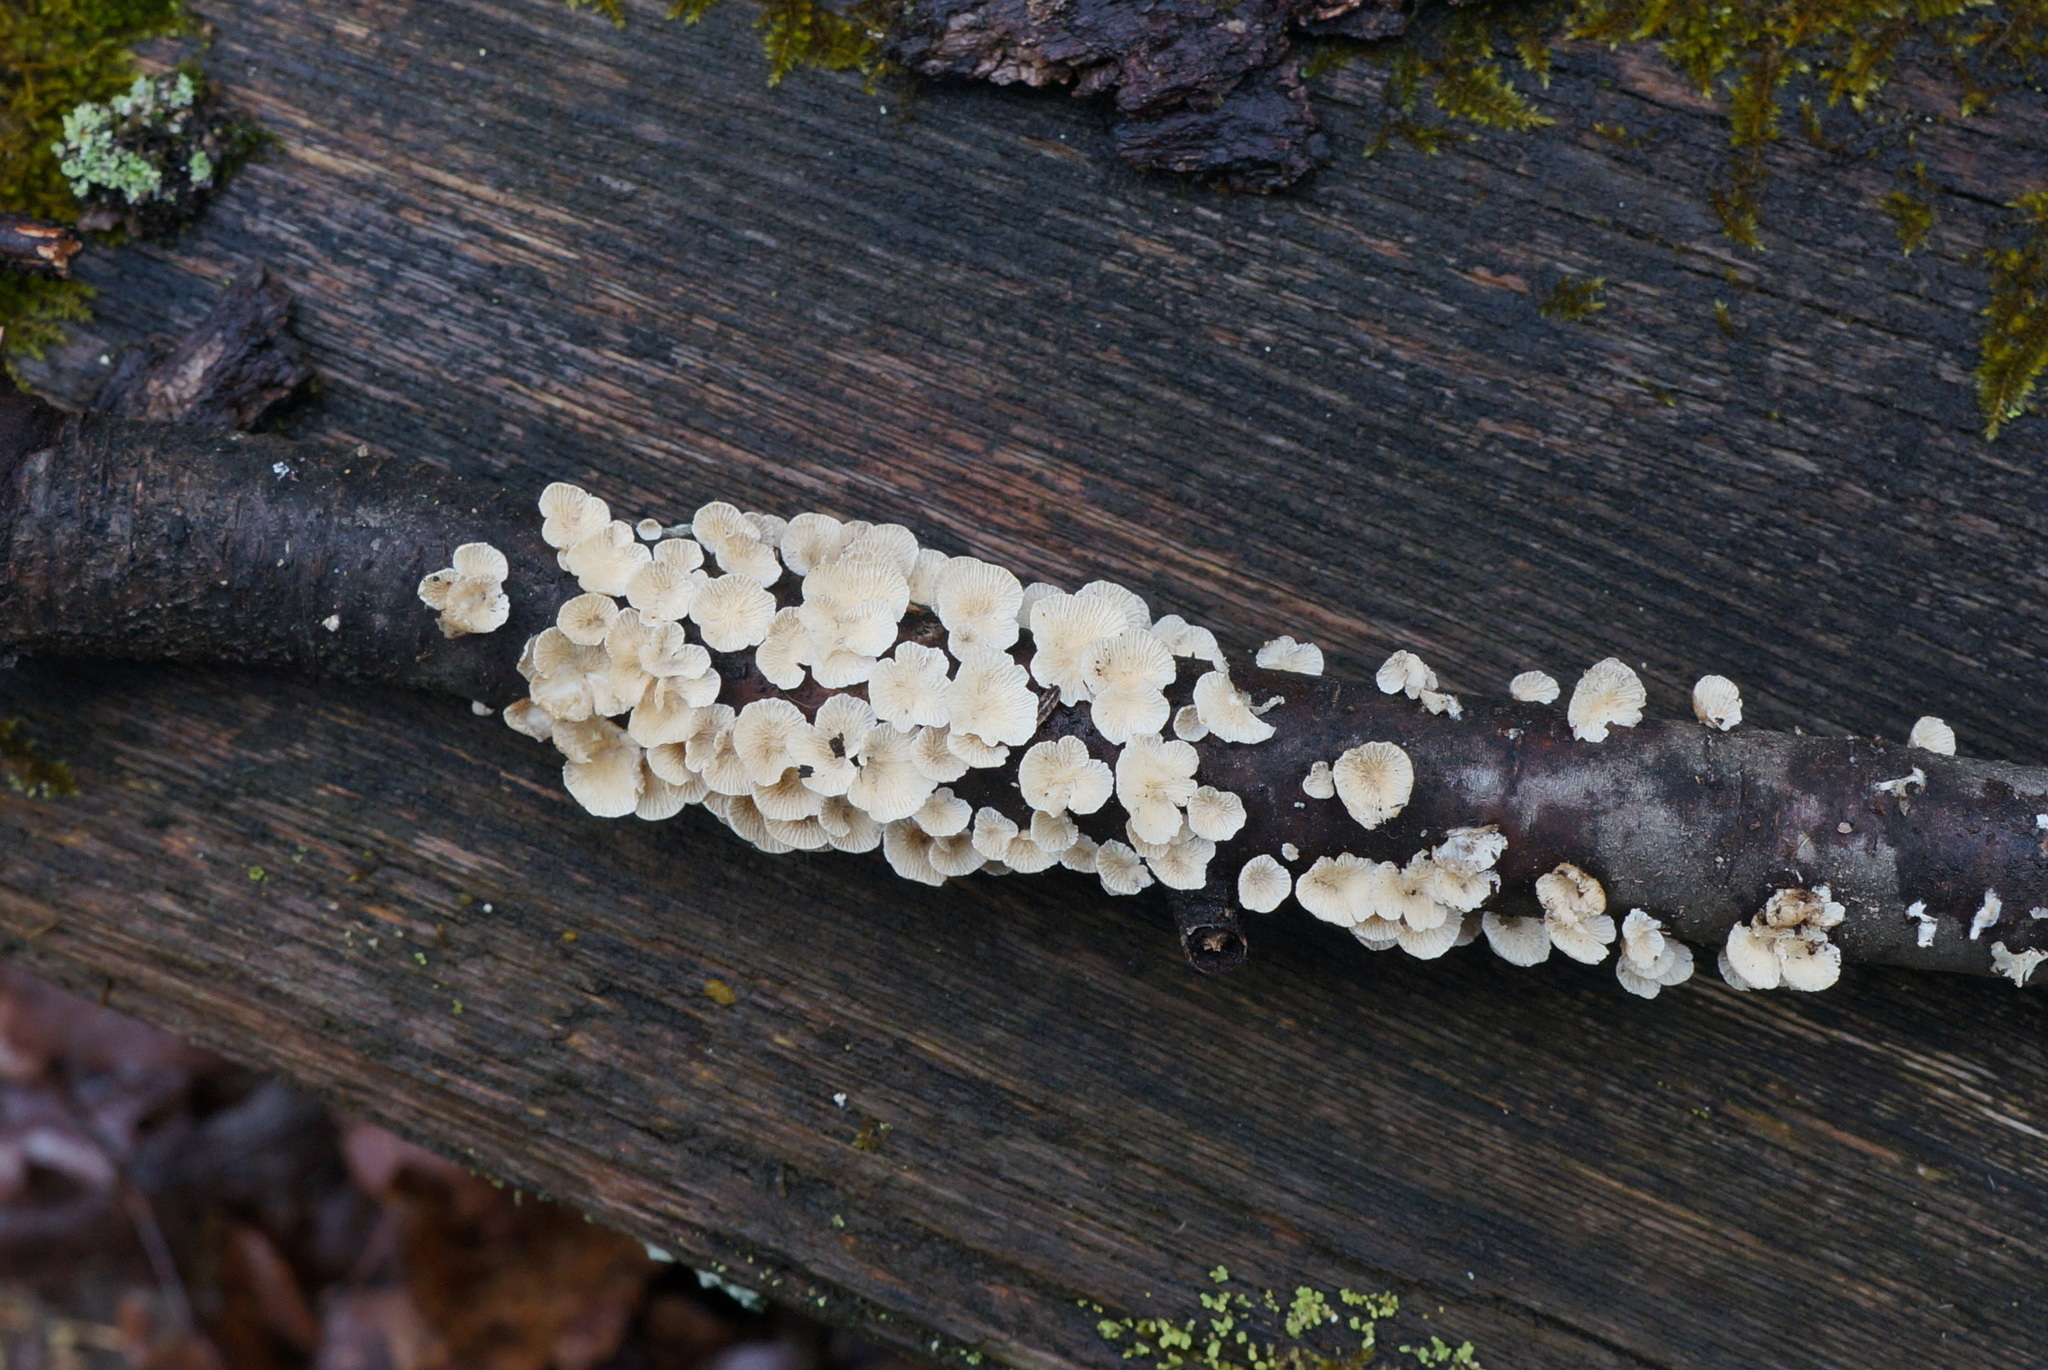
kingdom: Fungi
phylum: Basidiomycota
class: Agaricomycetes
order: Amylocorticiales
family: Amylocorticiaceae
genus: Plicaturopsis
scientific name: Plicaturopsis crispa
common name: Crimped gill
